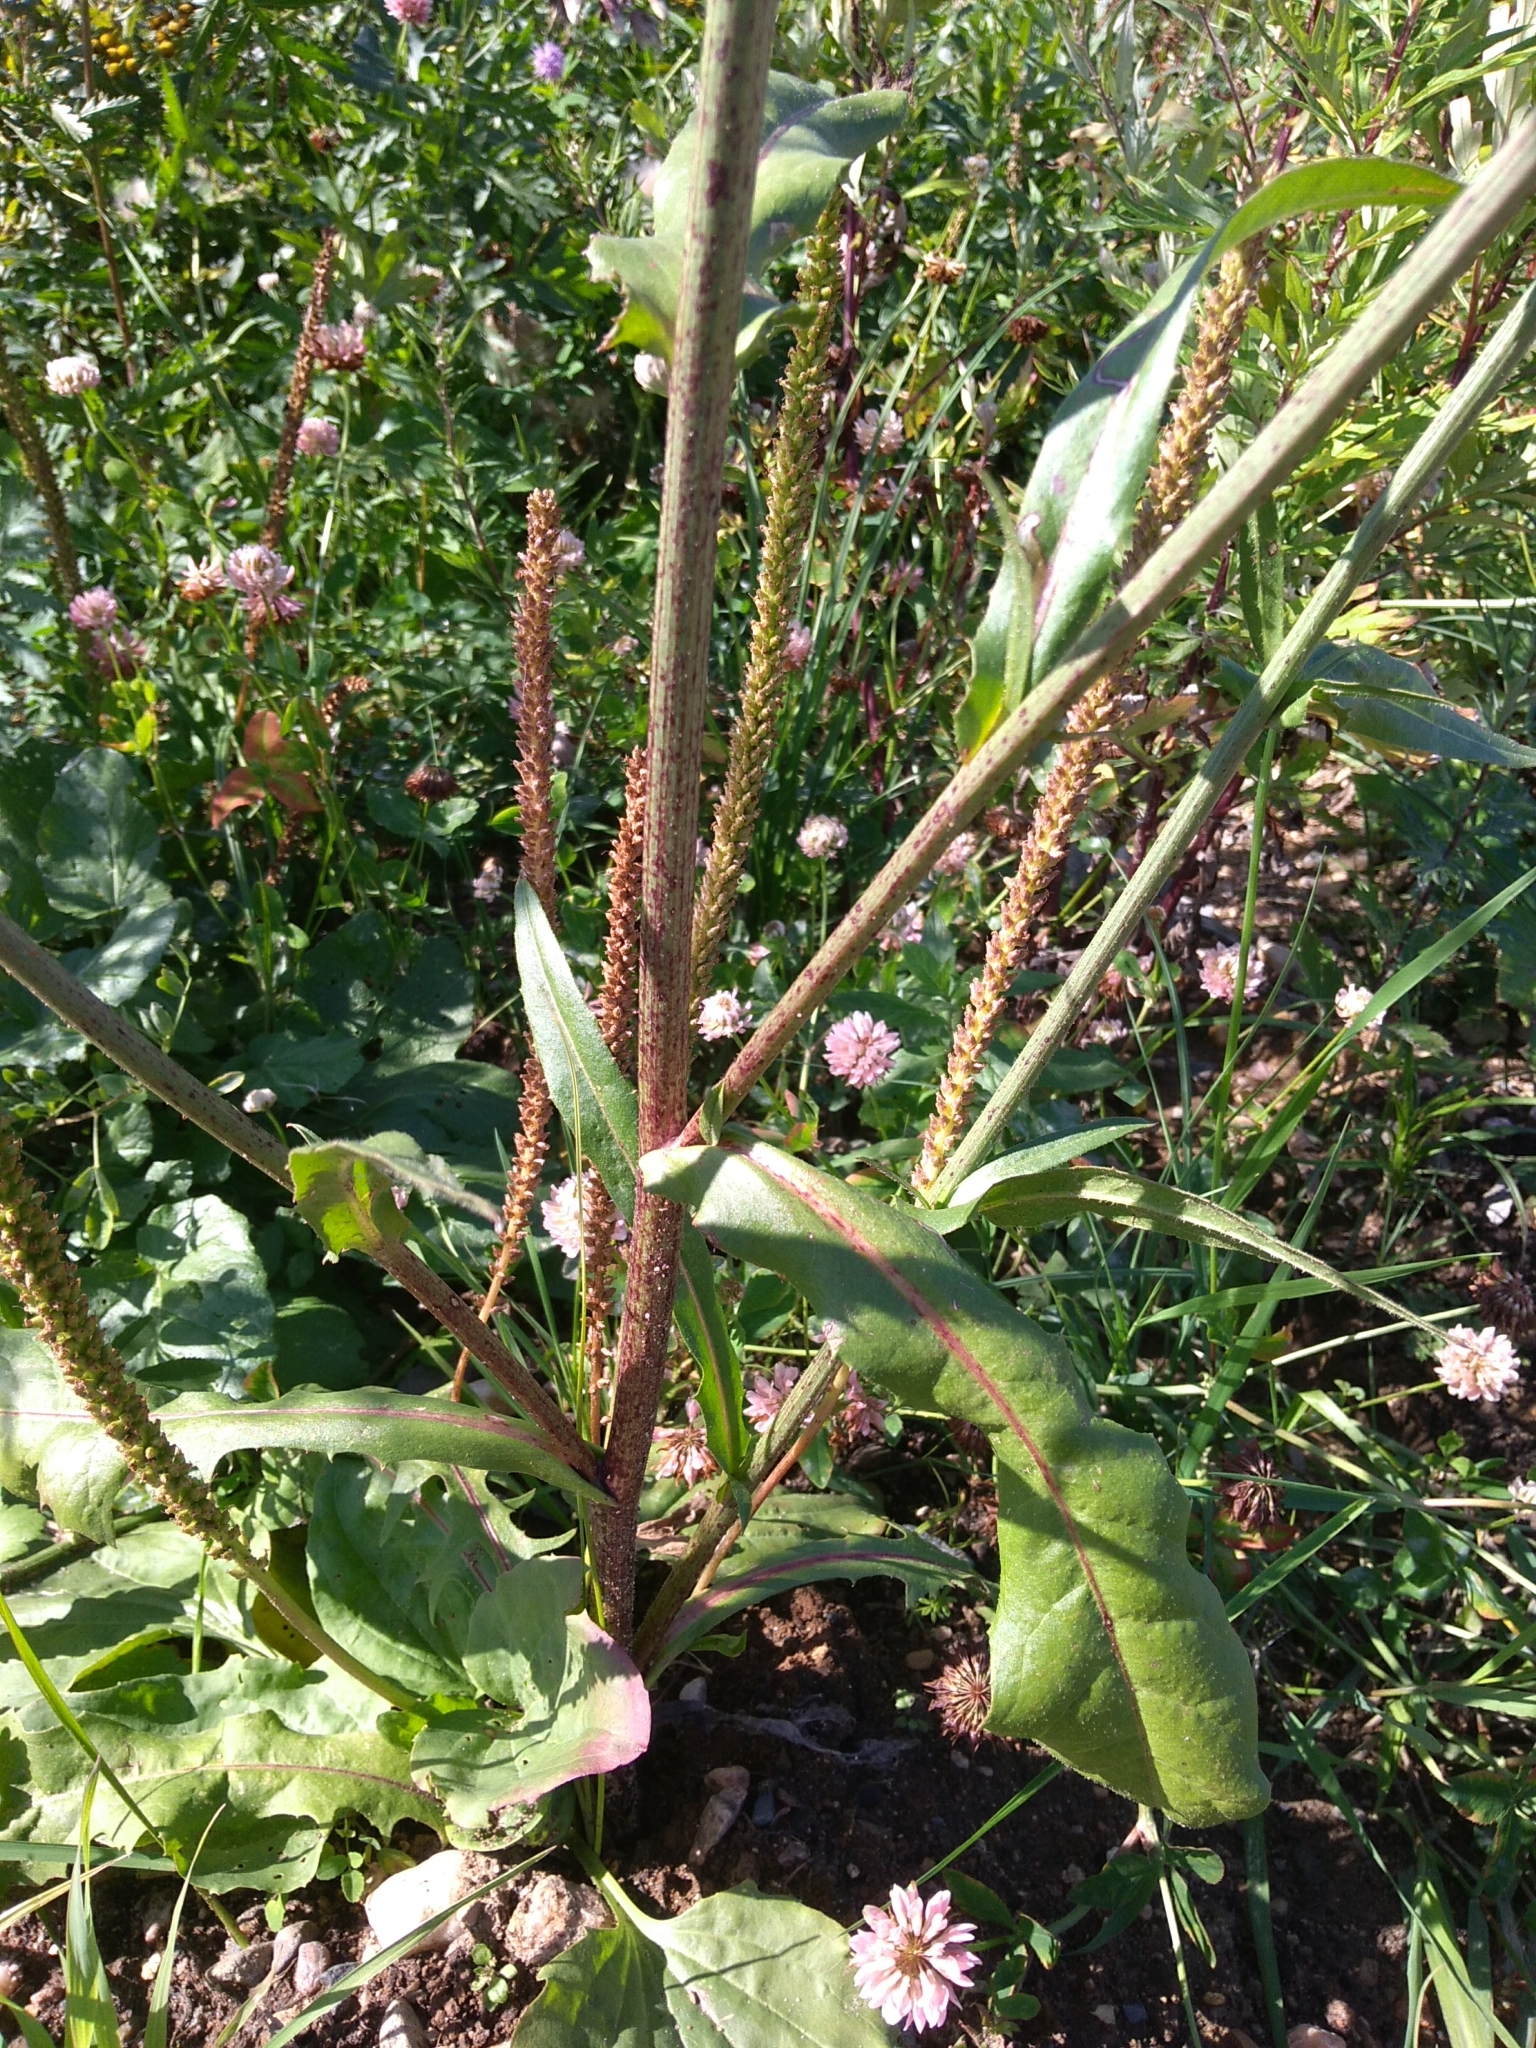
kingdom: Plantae
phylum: Tracheophyta
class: Magnoliopsida
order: Asterales
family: Asteraceae
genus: Cichorium
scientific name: Cichorium intybus
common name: Chicory
